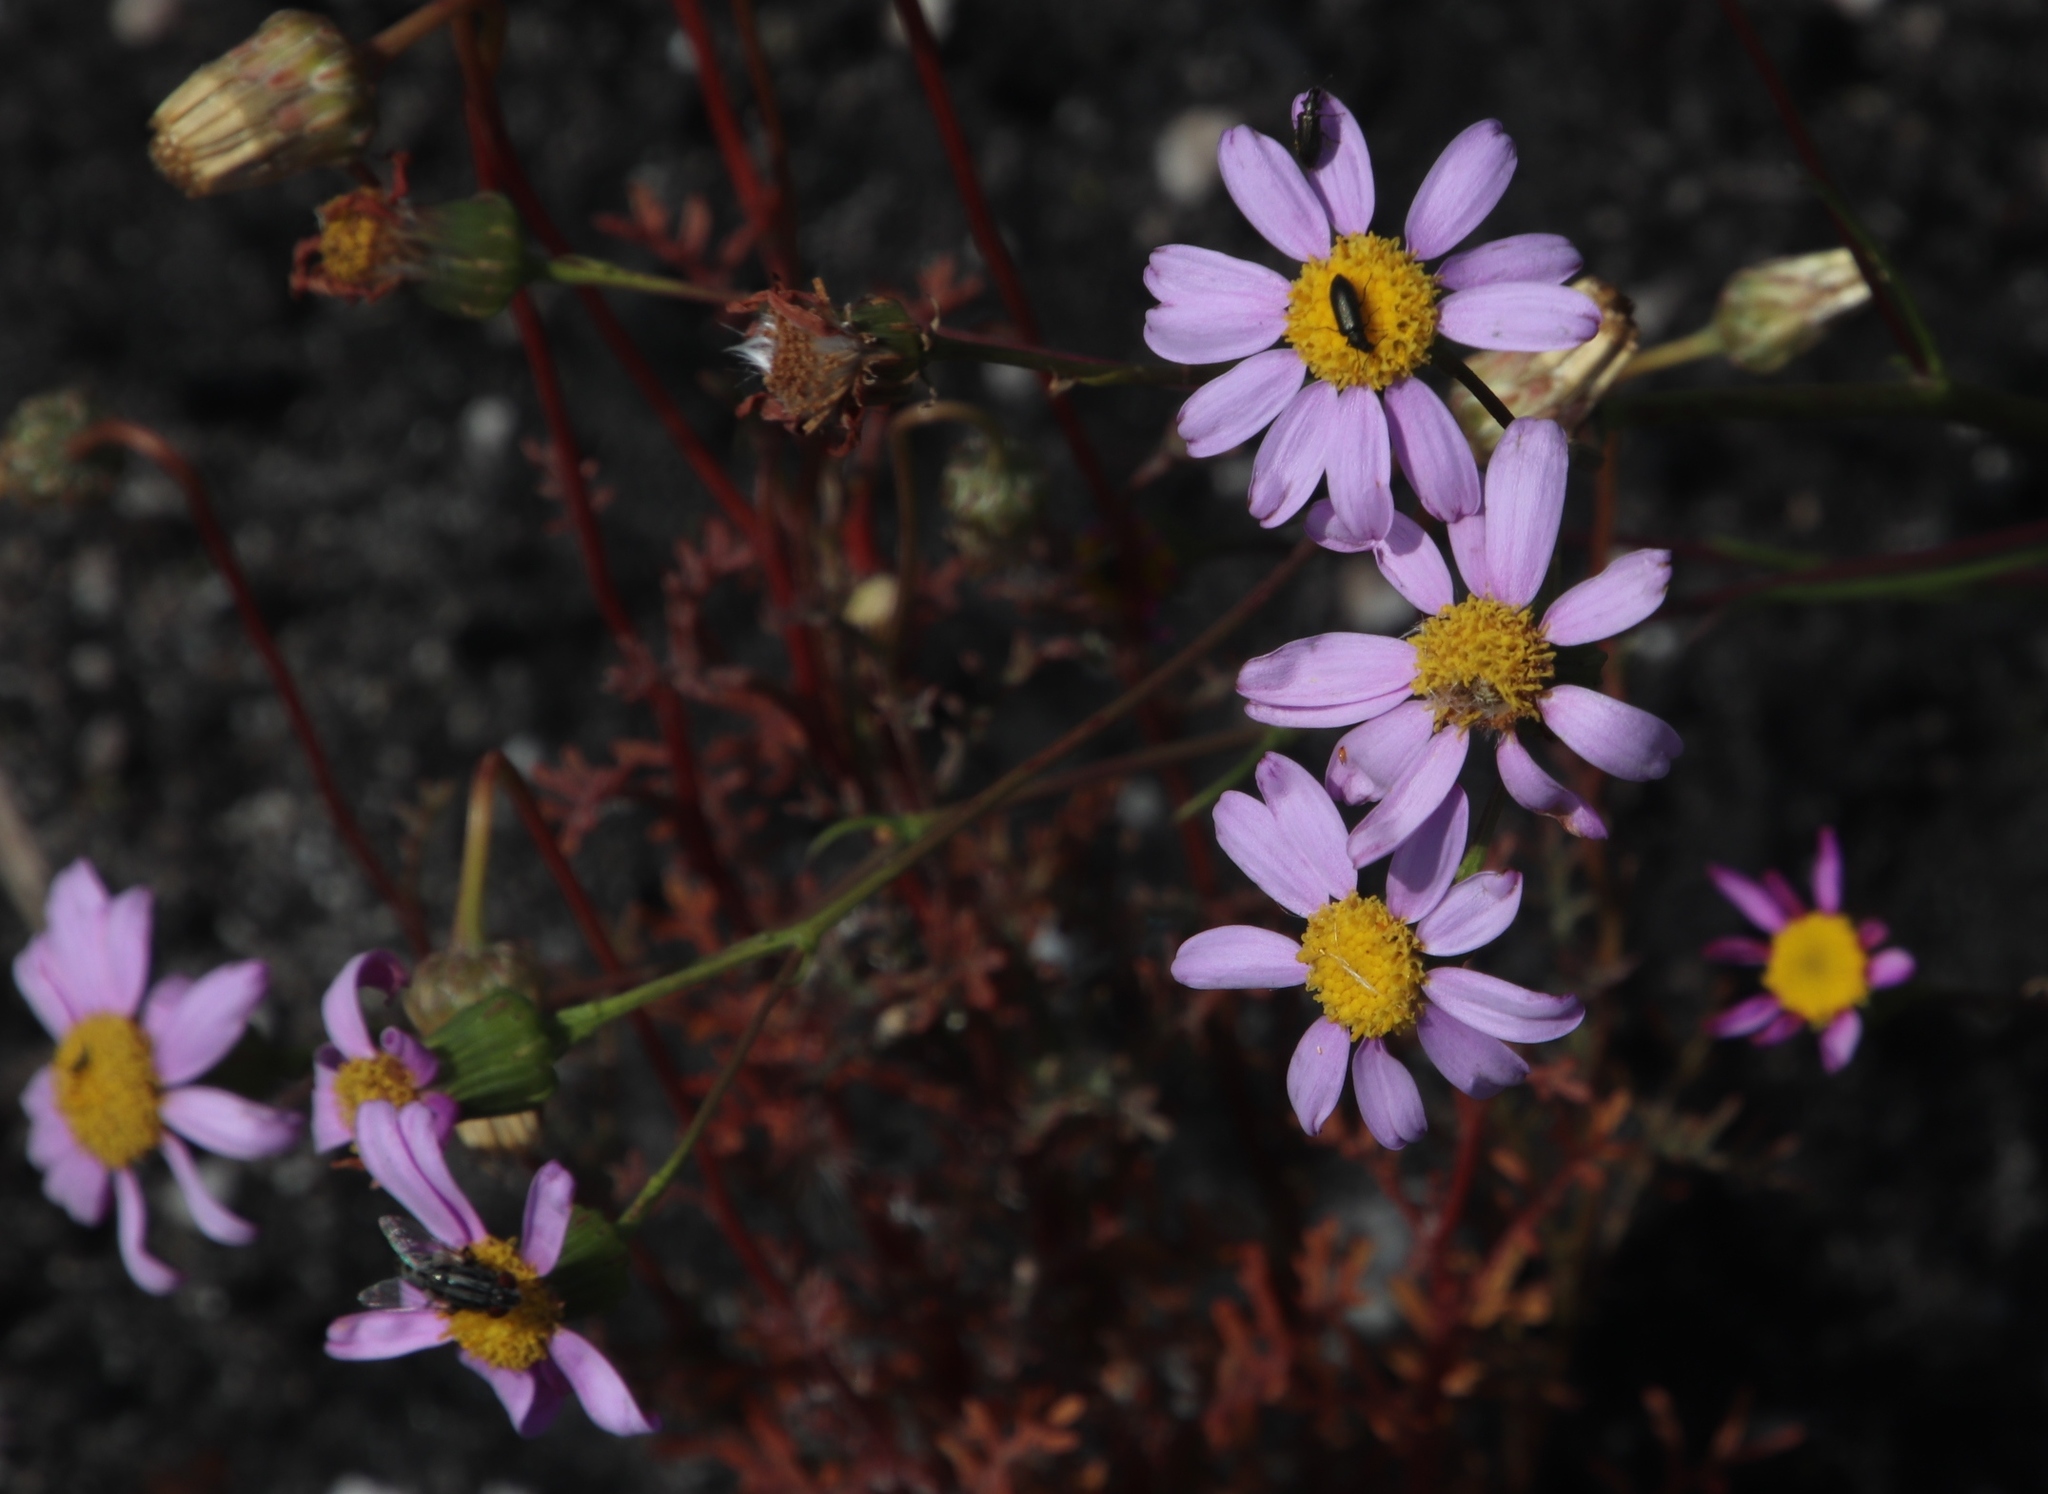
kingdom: Plantae
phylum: Tracheophyta
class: Magnoliopsida
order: Asterales
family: Asteraceae
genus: Senecio
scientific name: Senecio umbellatus
